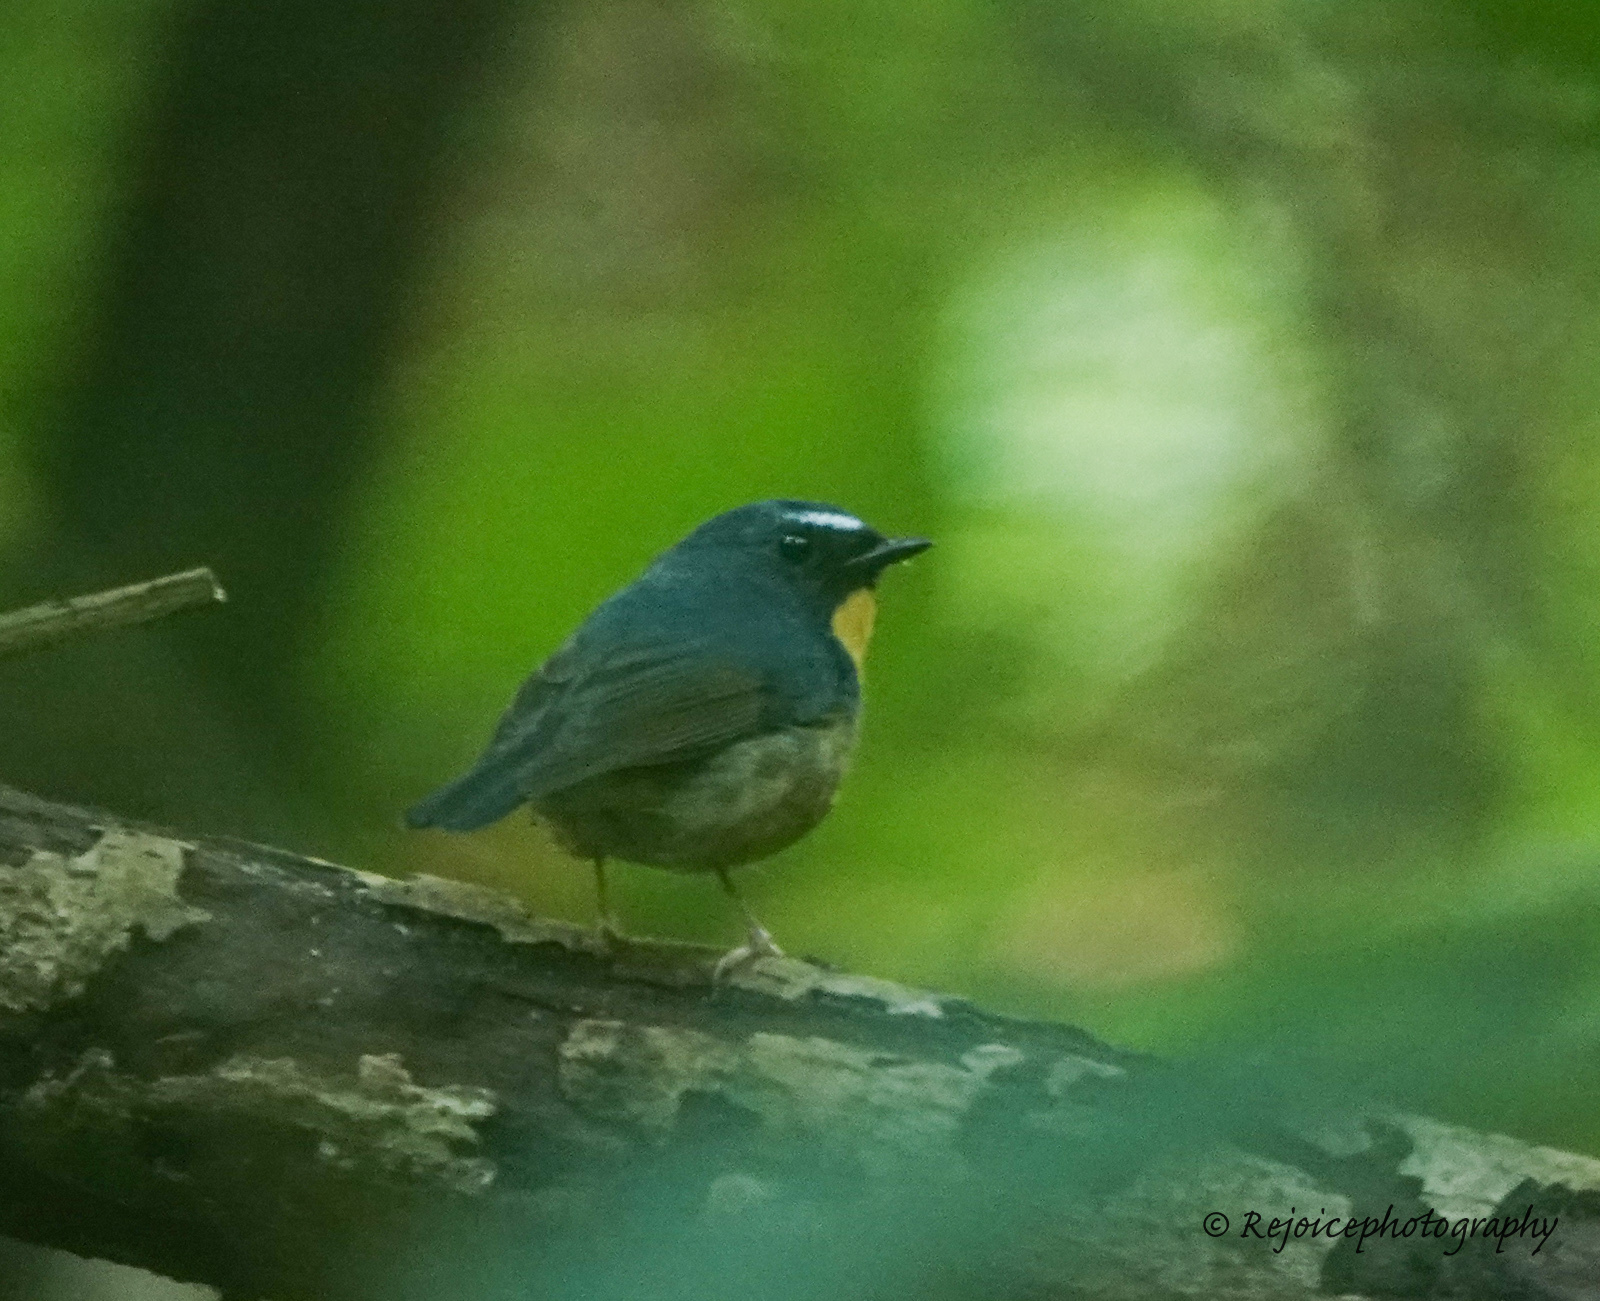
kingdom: Animalia
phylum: Chordata
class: Aves
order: Passeriformes
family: Muscicapidae
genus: Ficedula
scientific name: Ficedula hyperythra
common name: Snowy-browed flycatcher
